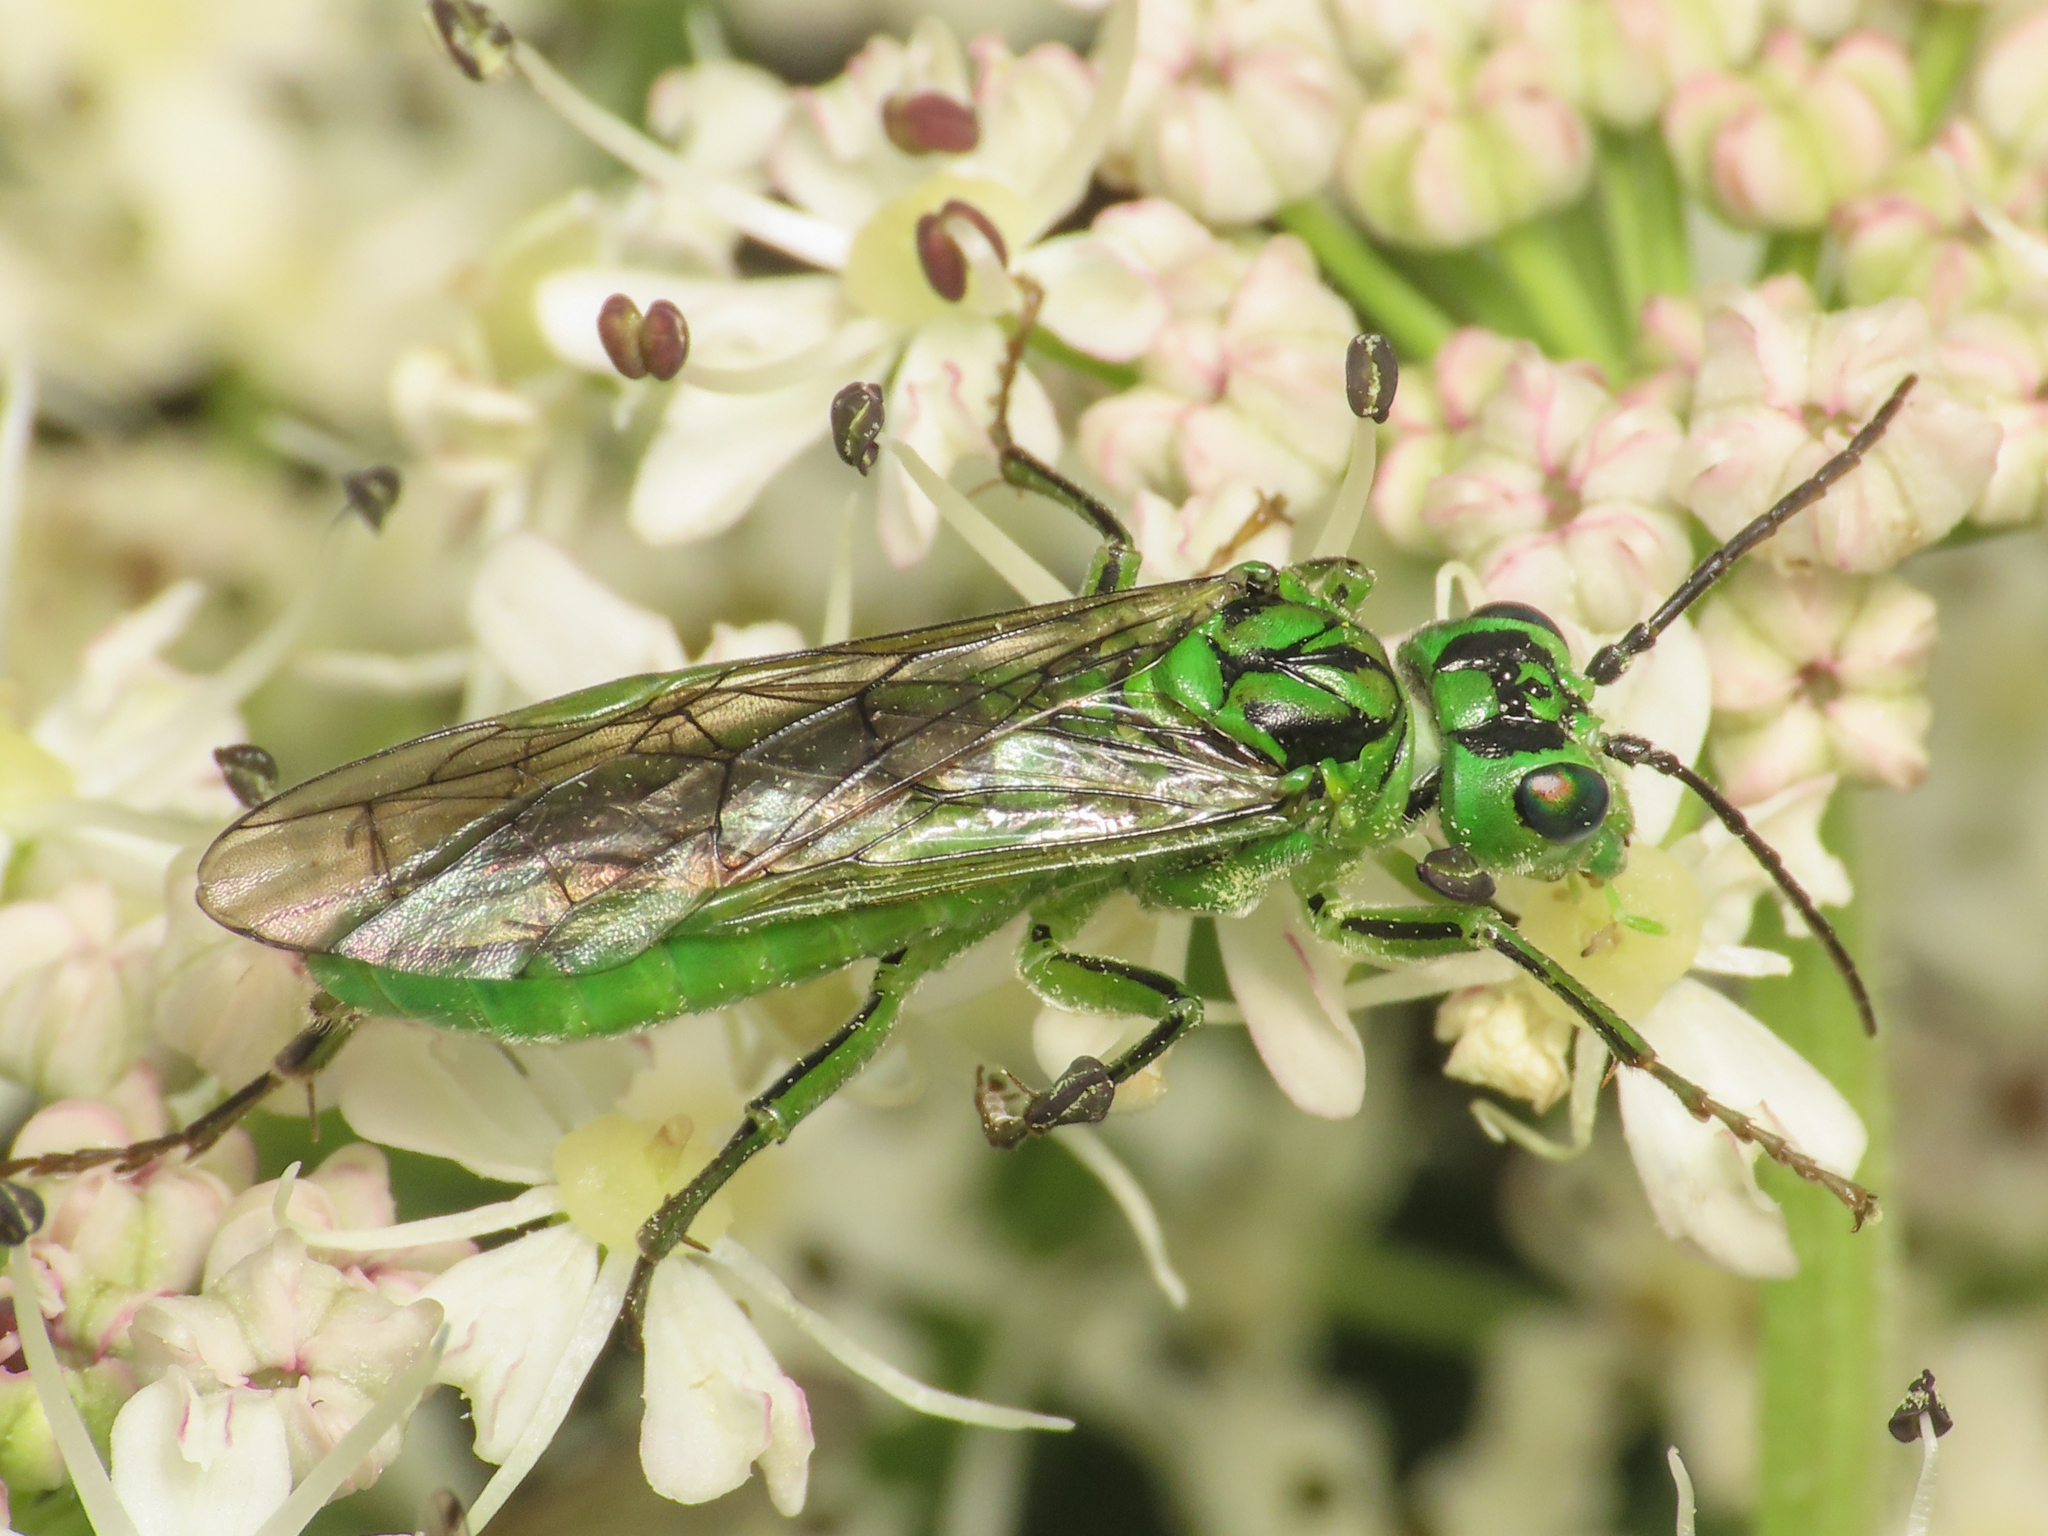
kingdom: Animalia
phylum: Arthropoda
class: Insecta
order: Hymenoptera
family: Tenthredinidae
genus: Tenthredo
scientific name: Tenthredo olivacea
